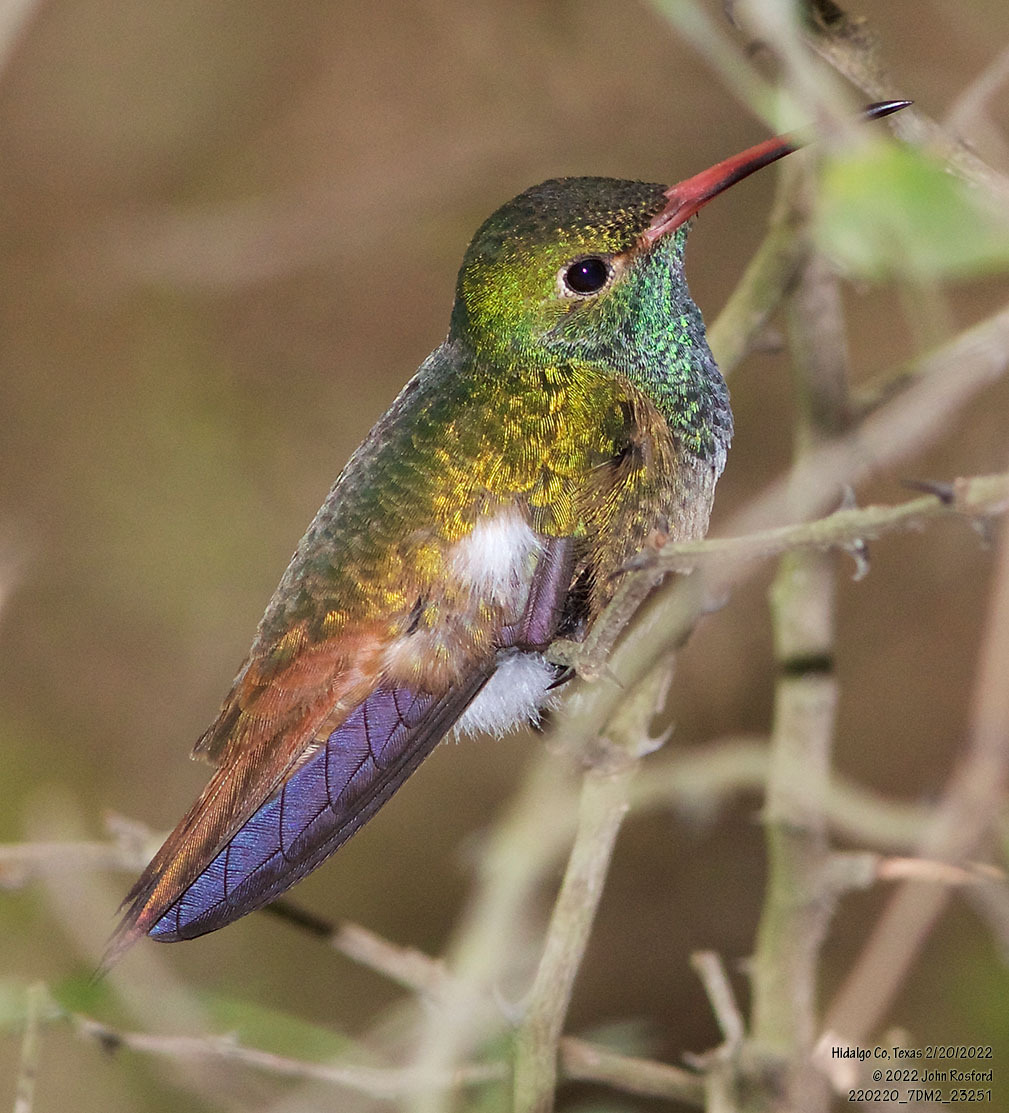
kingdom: Animalia
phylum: Chordata
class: Aves
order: Apodiformes
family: Trochilidae
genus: Amazilia
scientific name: Amazilia yucatanensis
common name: Buff-bellied hummingbird
